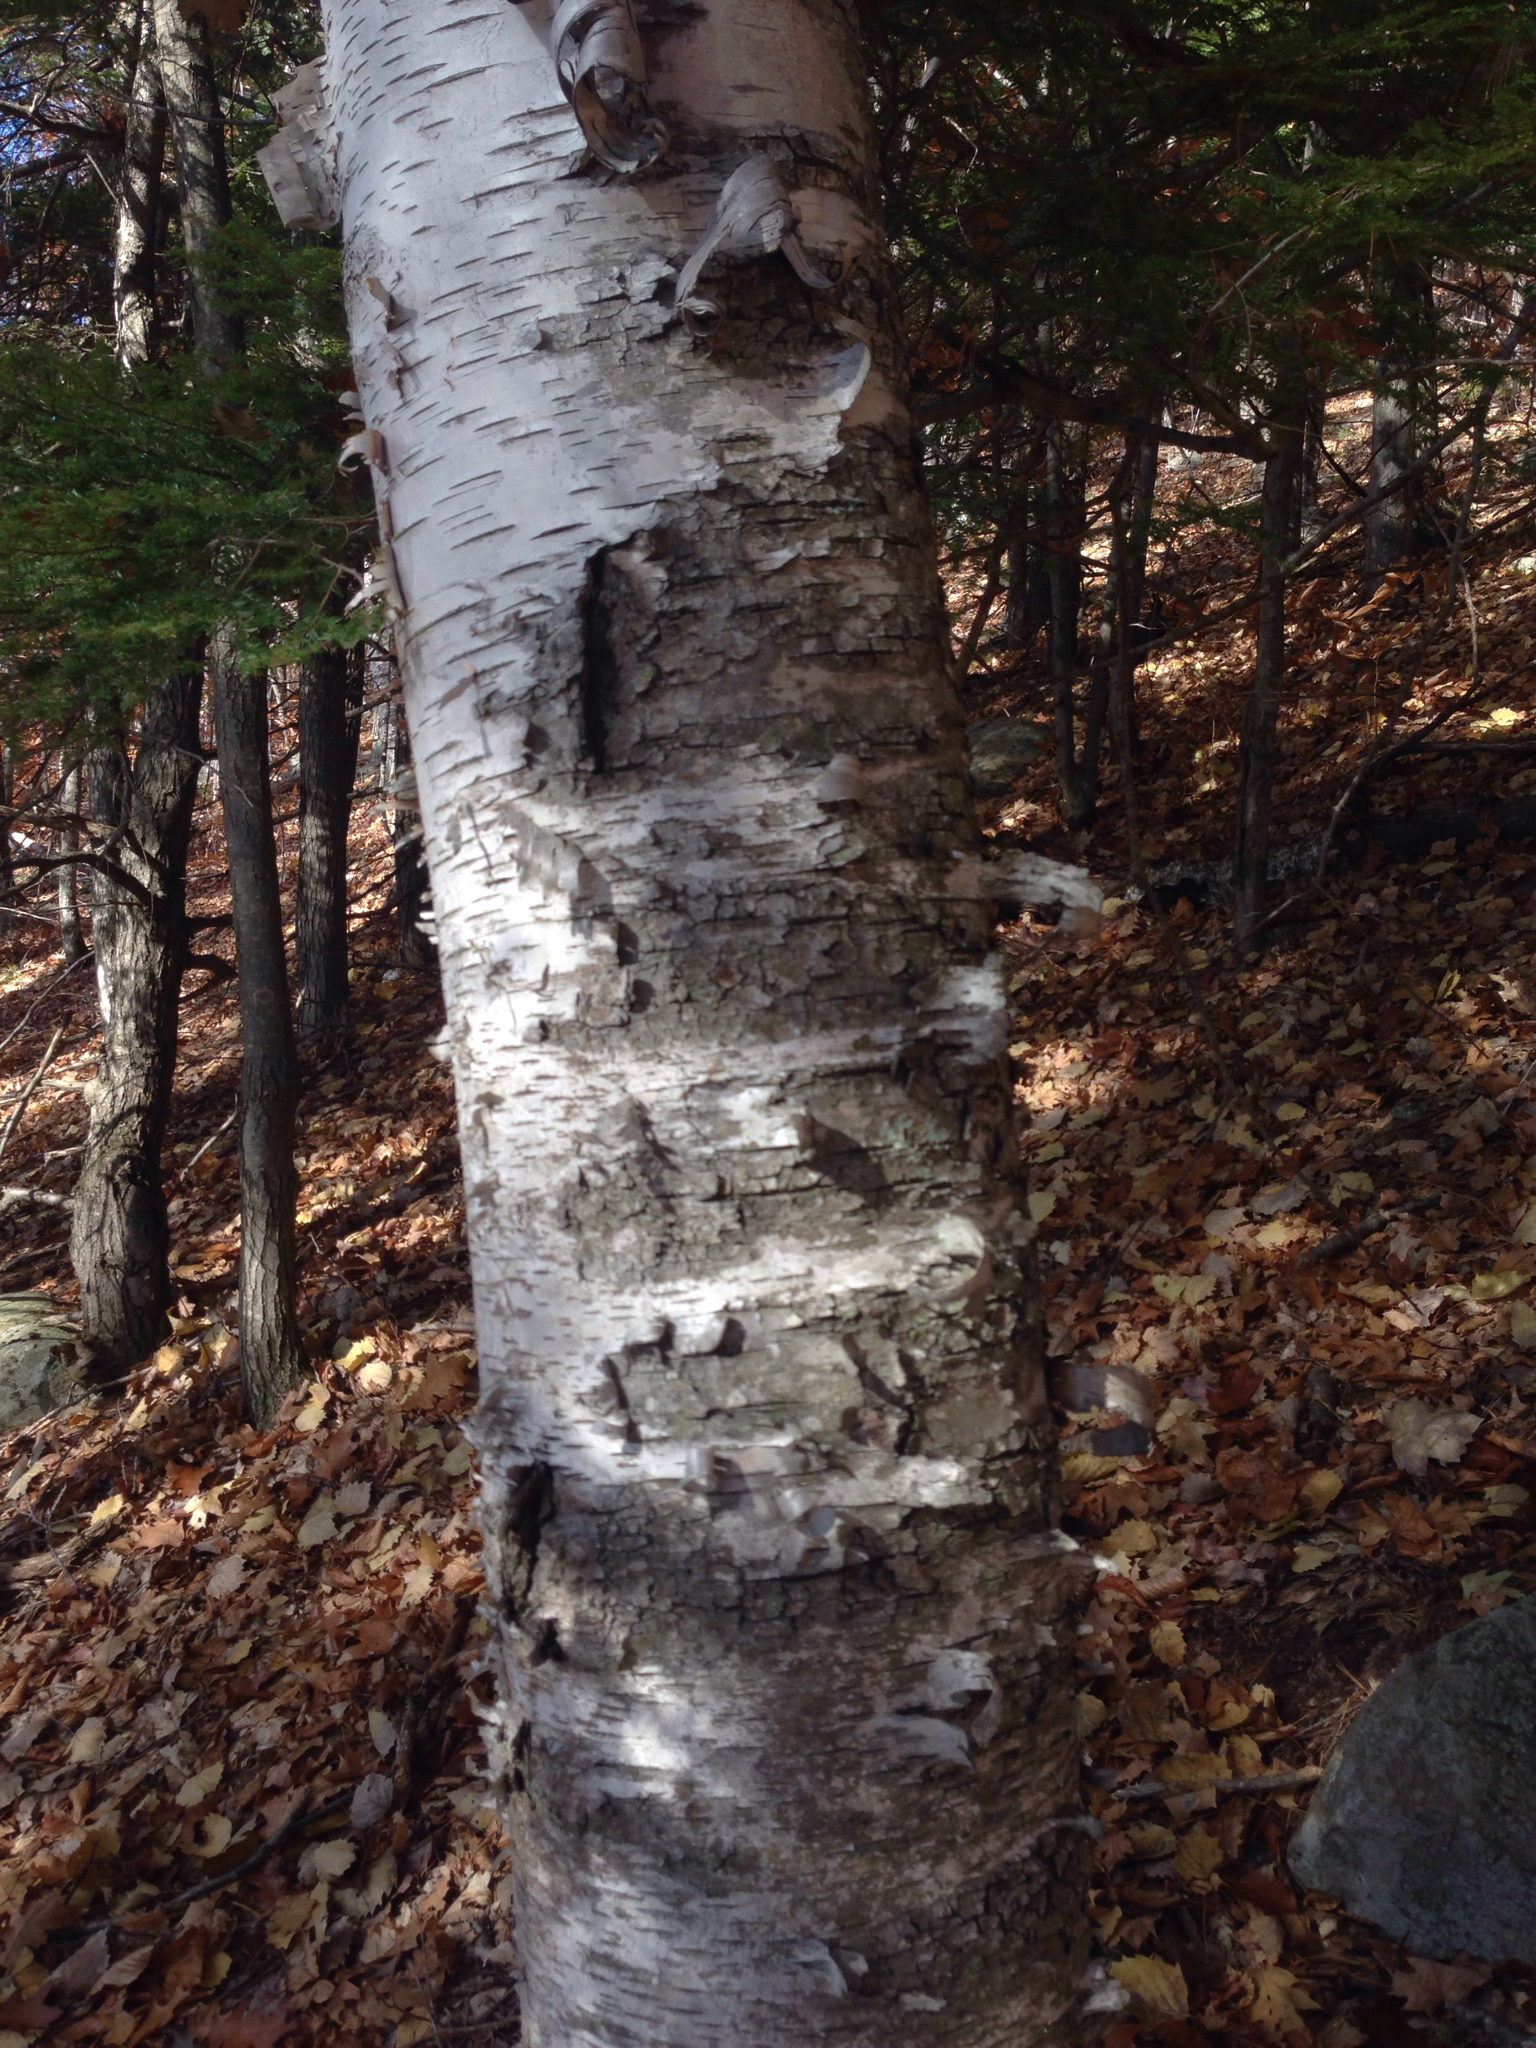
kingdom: Plantae
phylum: Tracheophyta
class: Magnoliopsida
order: Fagales
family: Betulaceae
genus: Betula
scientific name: Betula papyrifera
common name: Paper birch
